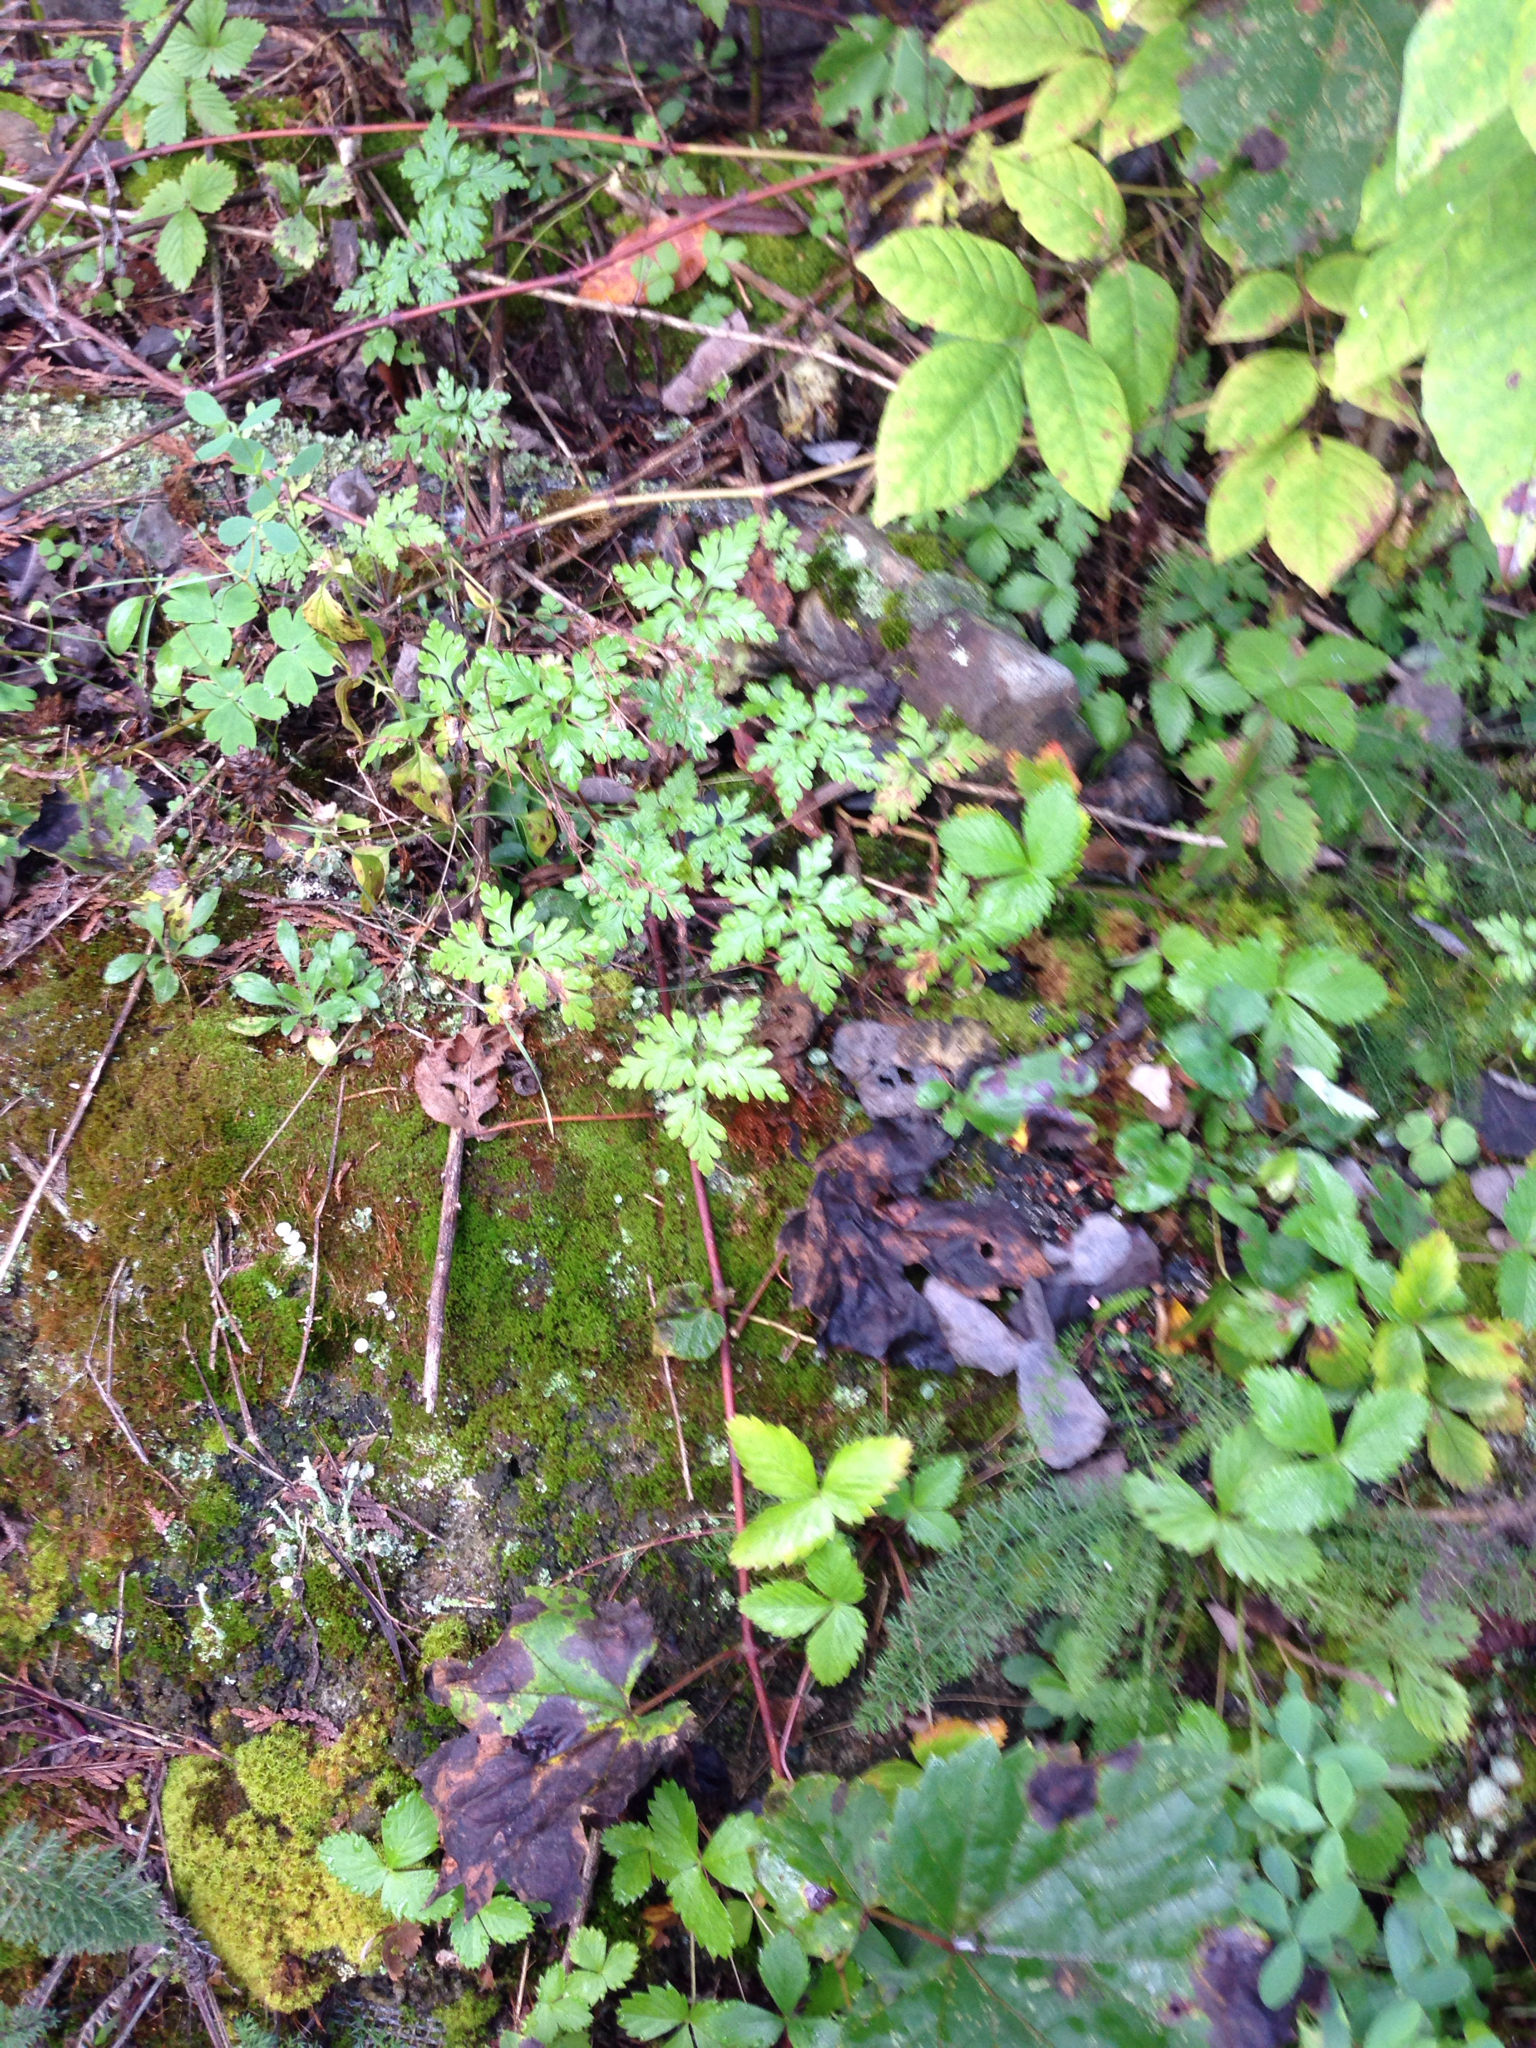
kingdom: Plantae
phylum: Tracheophyta
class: Magnoliopsida
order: Geraniales
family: Geraniaceae
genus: Geranium
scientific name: Geranium robertianum
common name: Herb-robert
